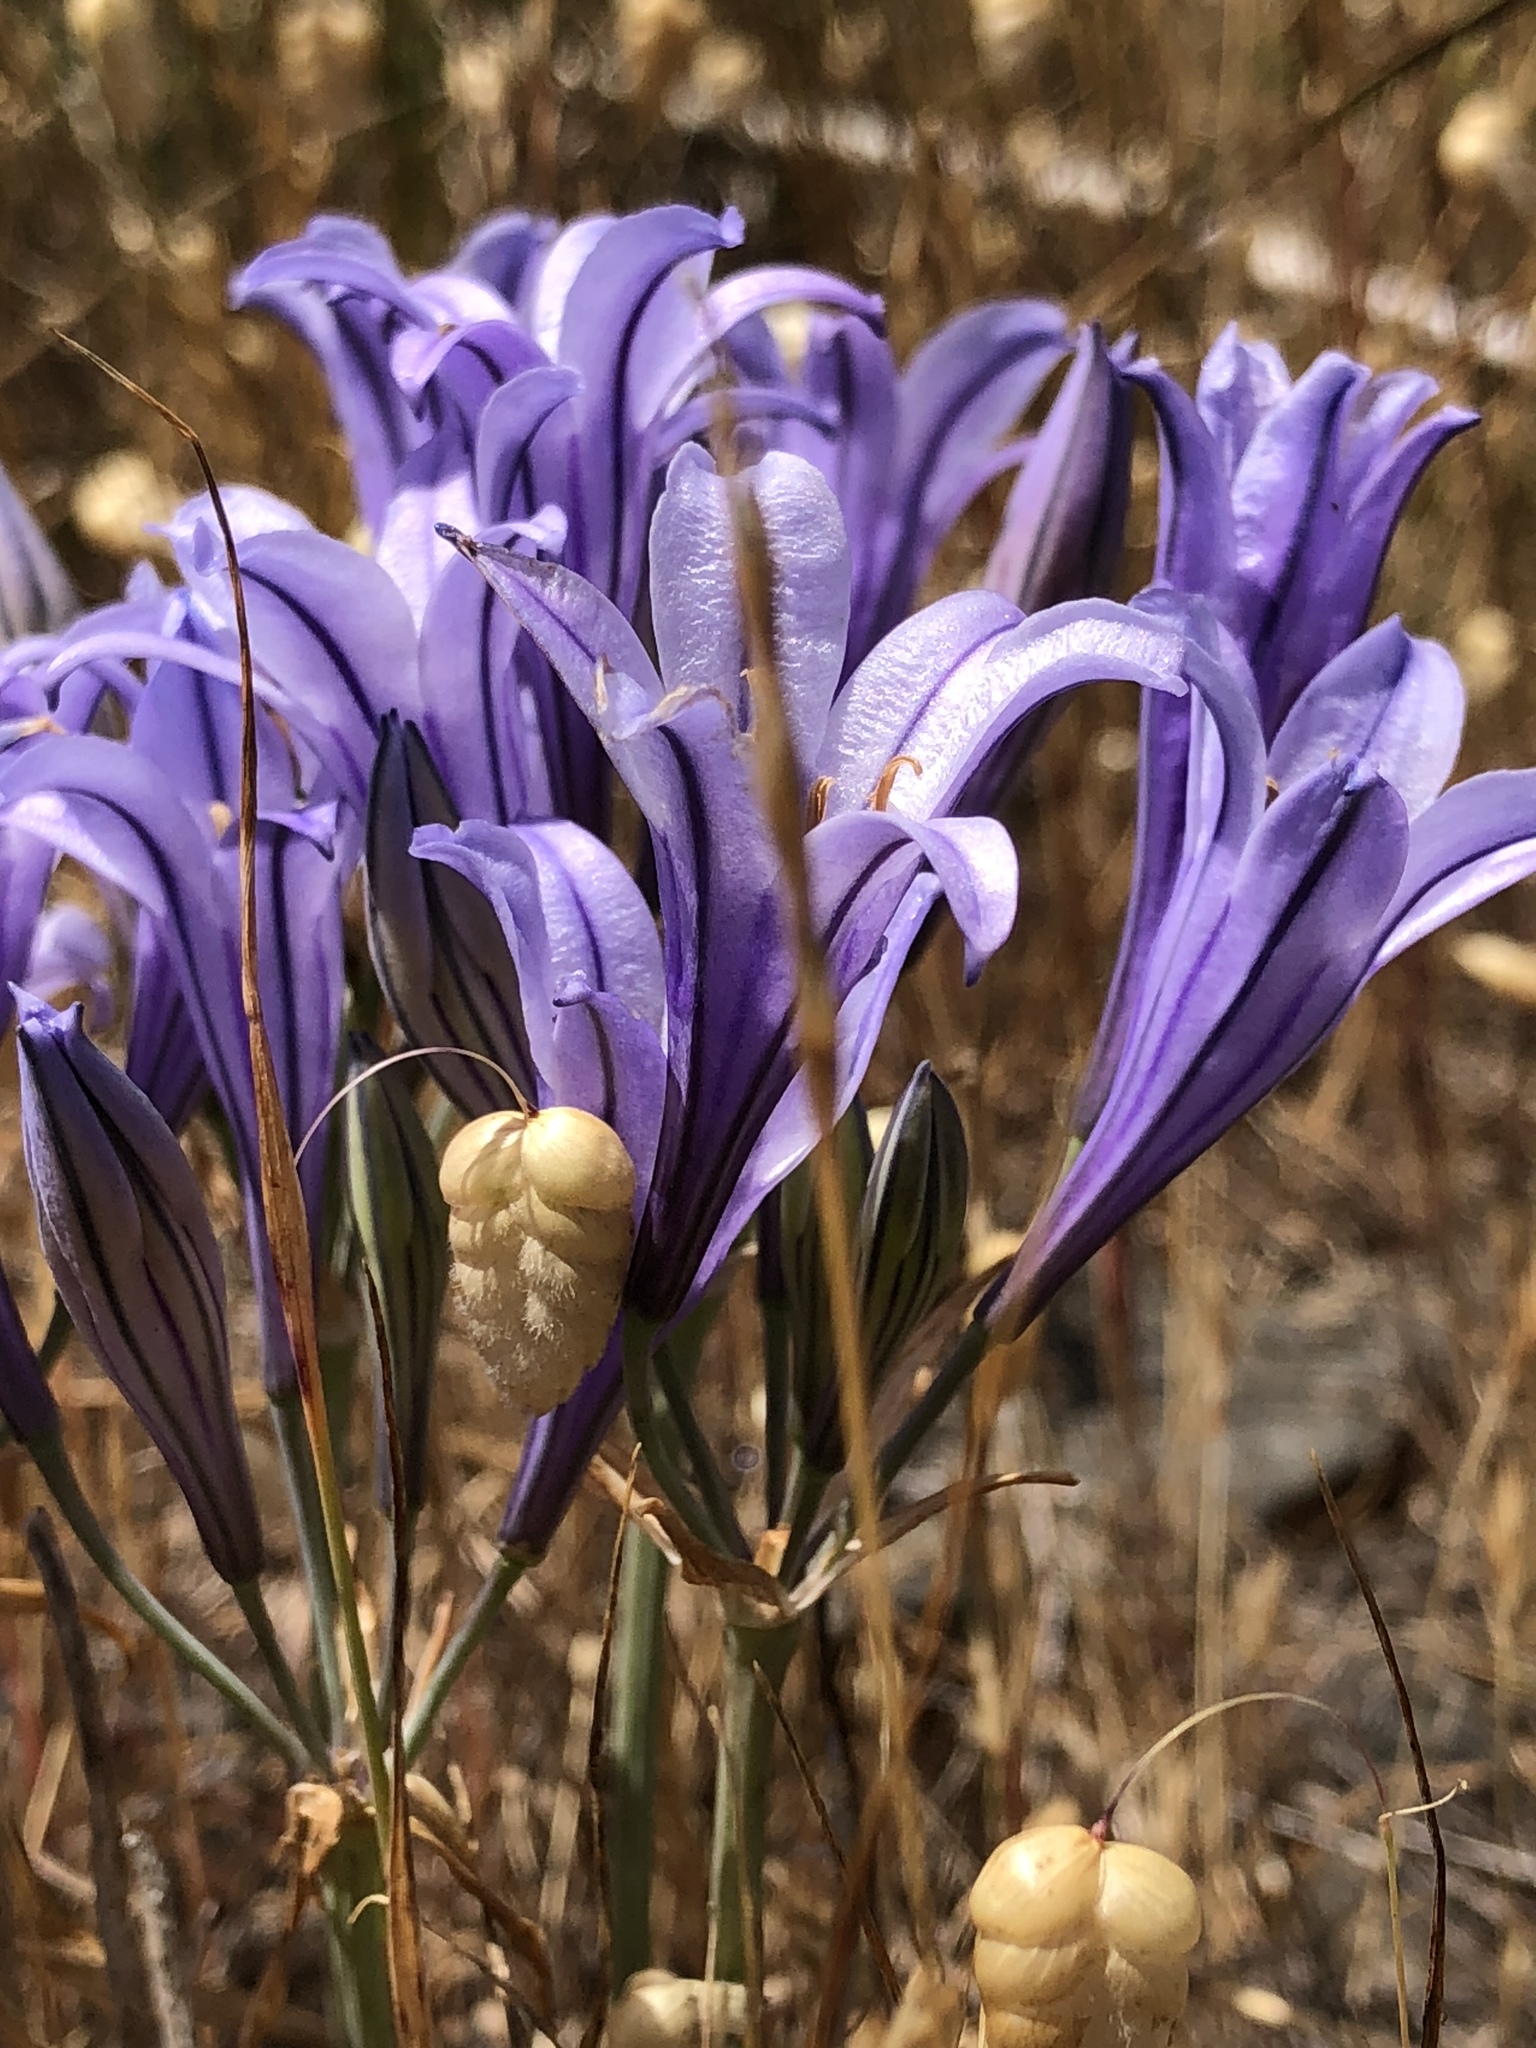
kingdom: Plantae
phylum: Tracheophyta
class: Liliopsida
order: Asparagales
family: Asparagaceae
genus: Triteleia
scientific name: Triteleia laxa
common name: Triplet-lily
